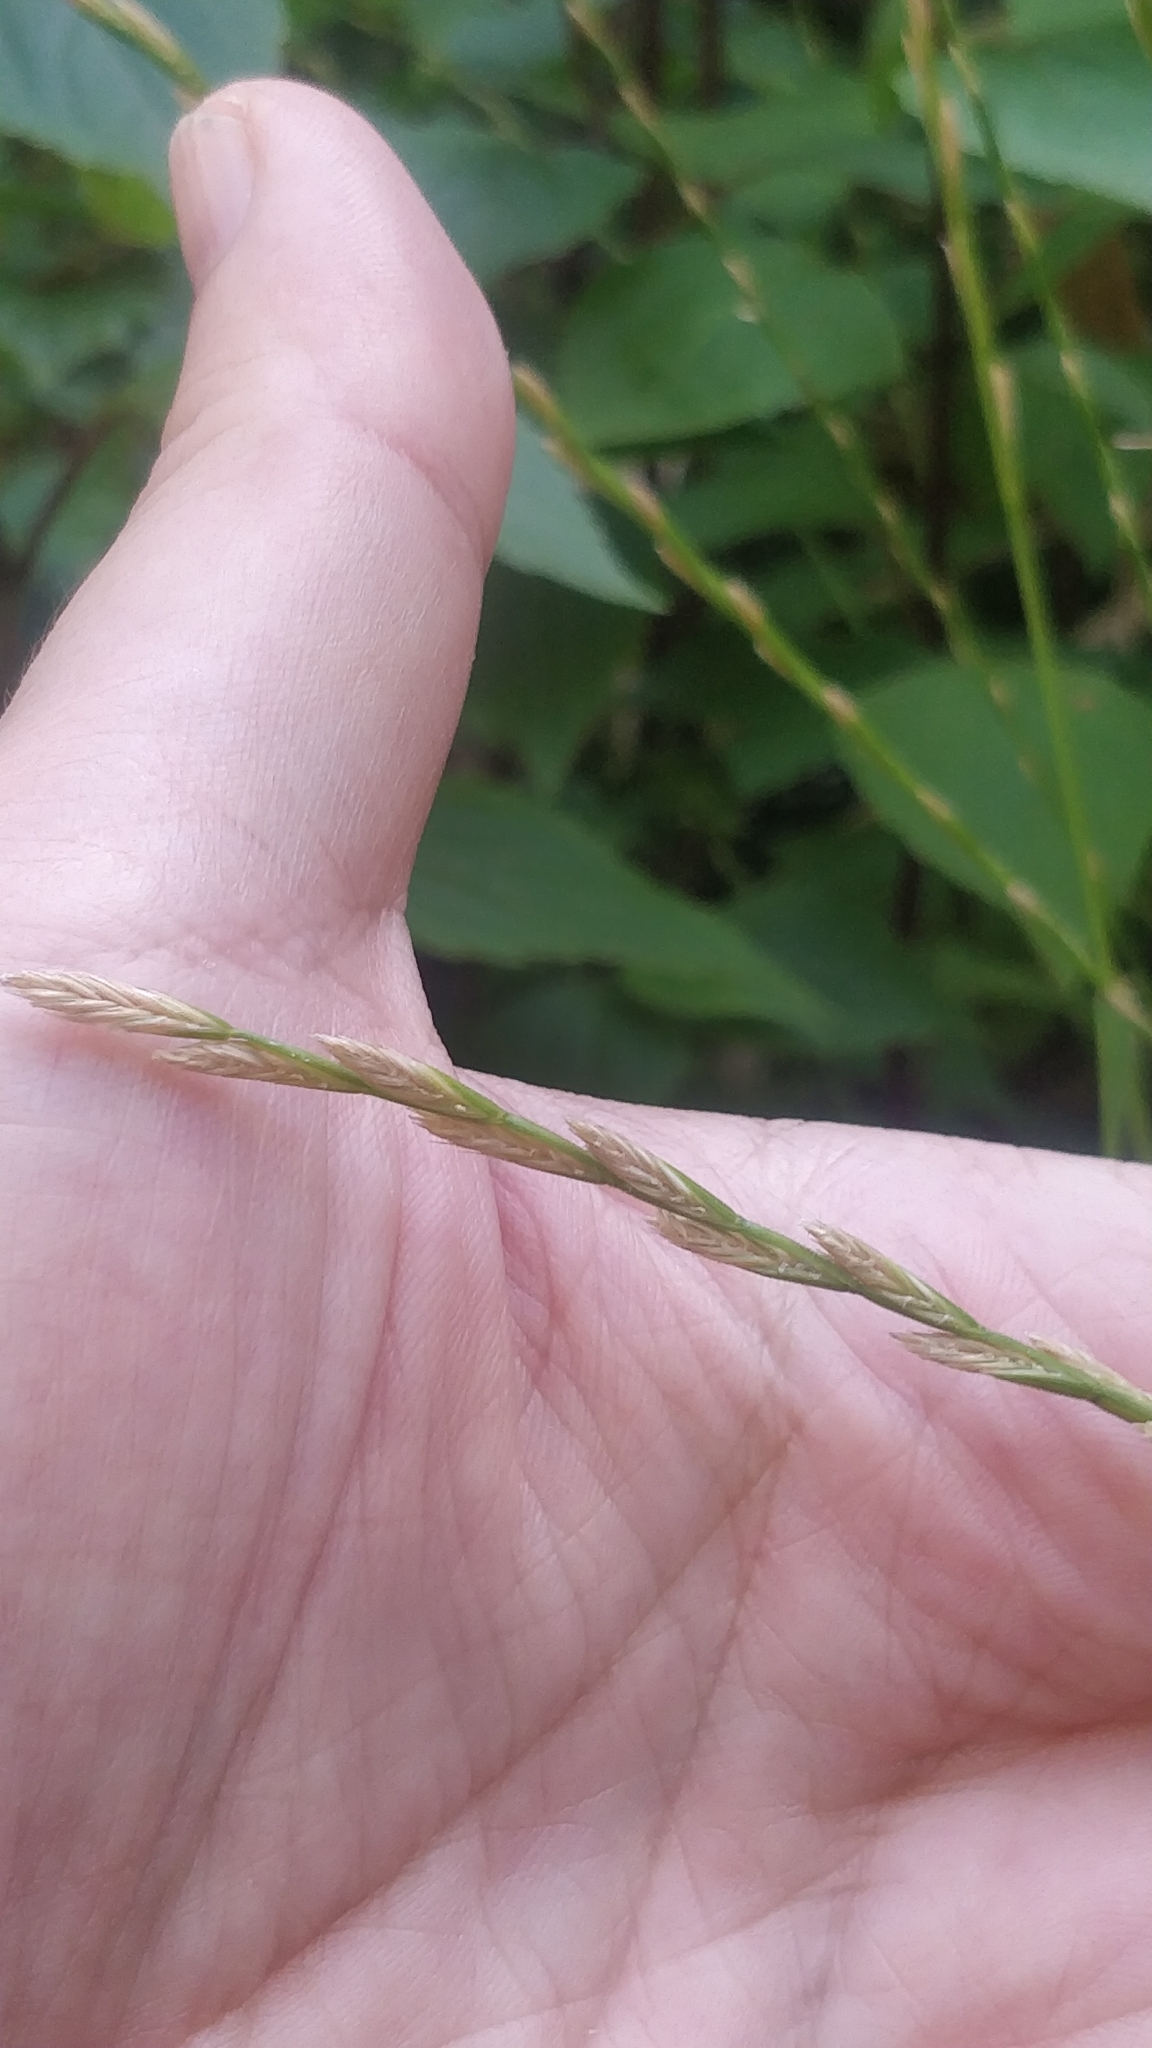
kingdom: Plantae
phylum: Tracheophyta
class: Liliopsida
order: Poales
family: Poaceae
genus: Lolium
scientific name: Lolium perenne
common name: Perennial ryegrass
